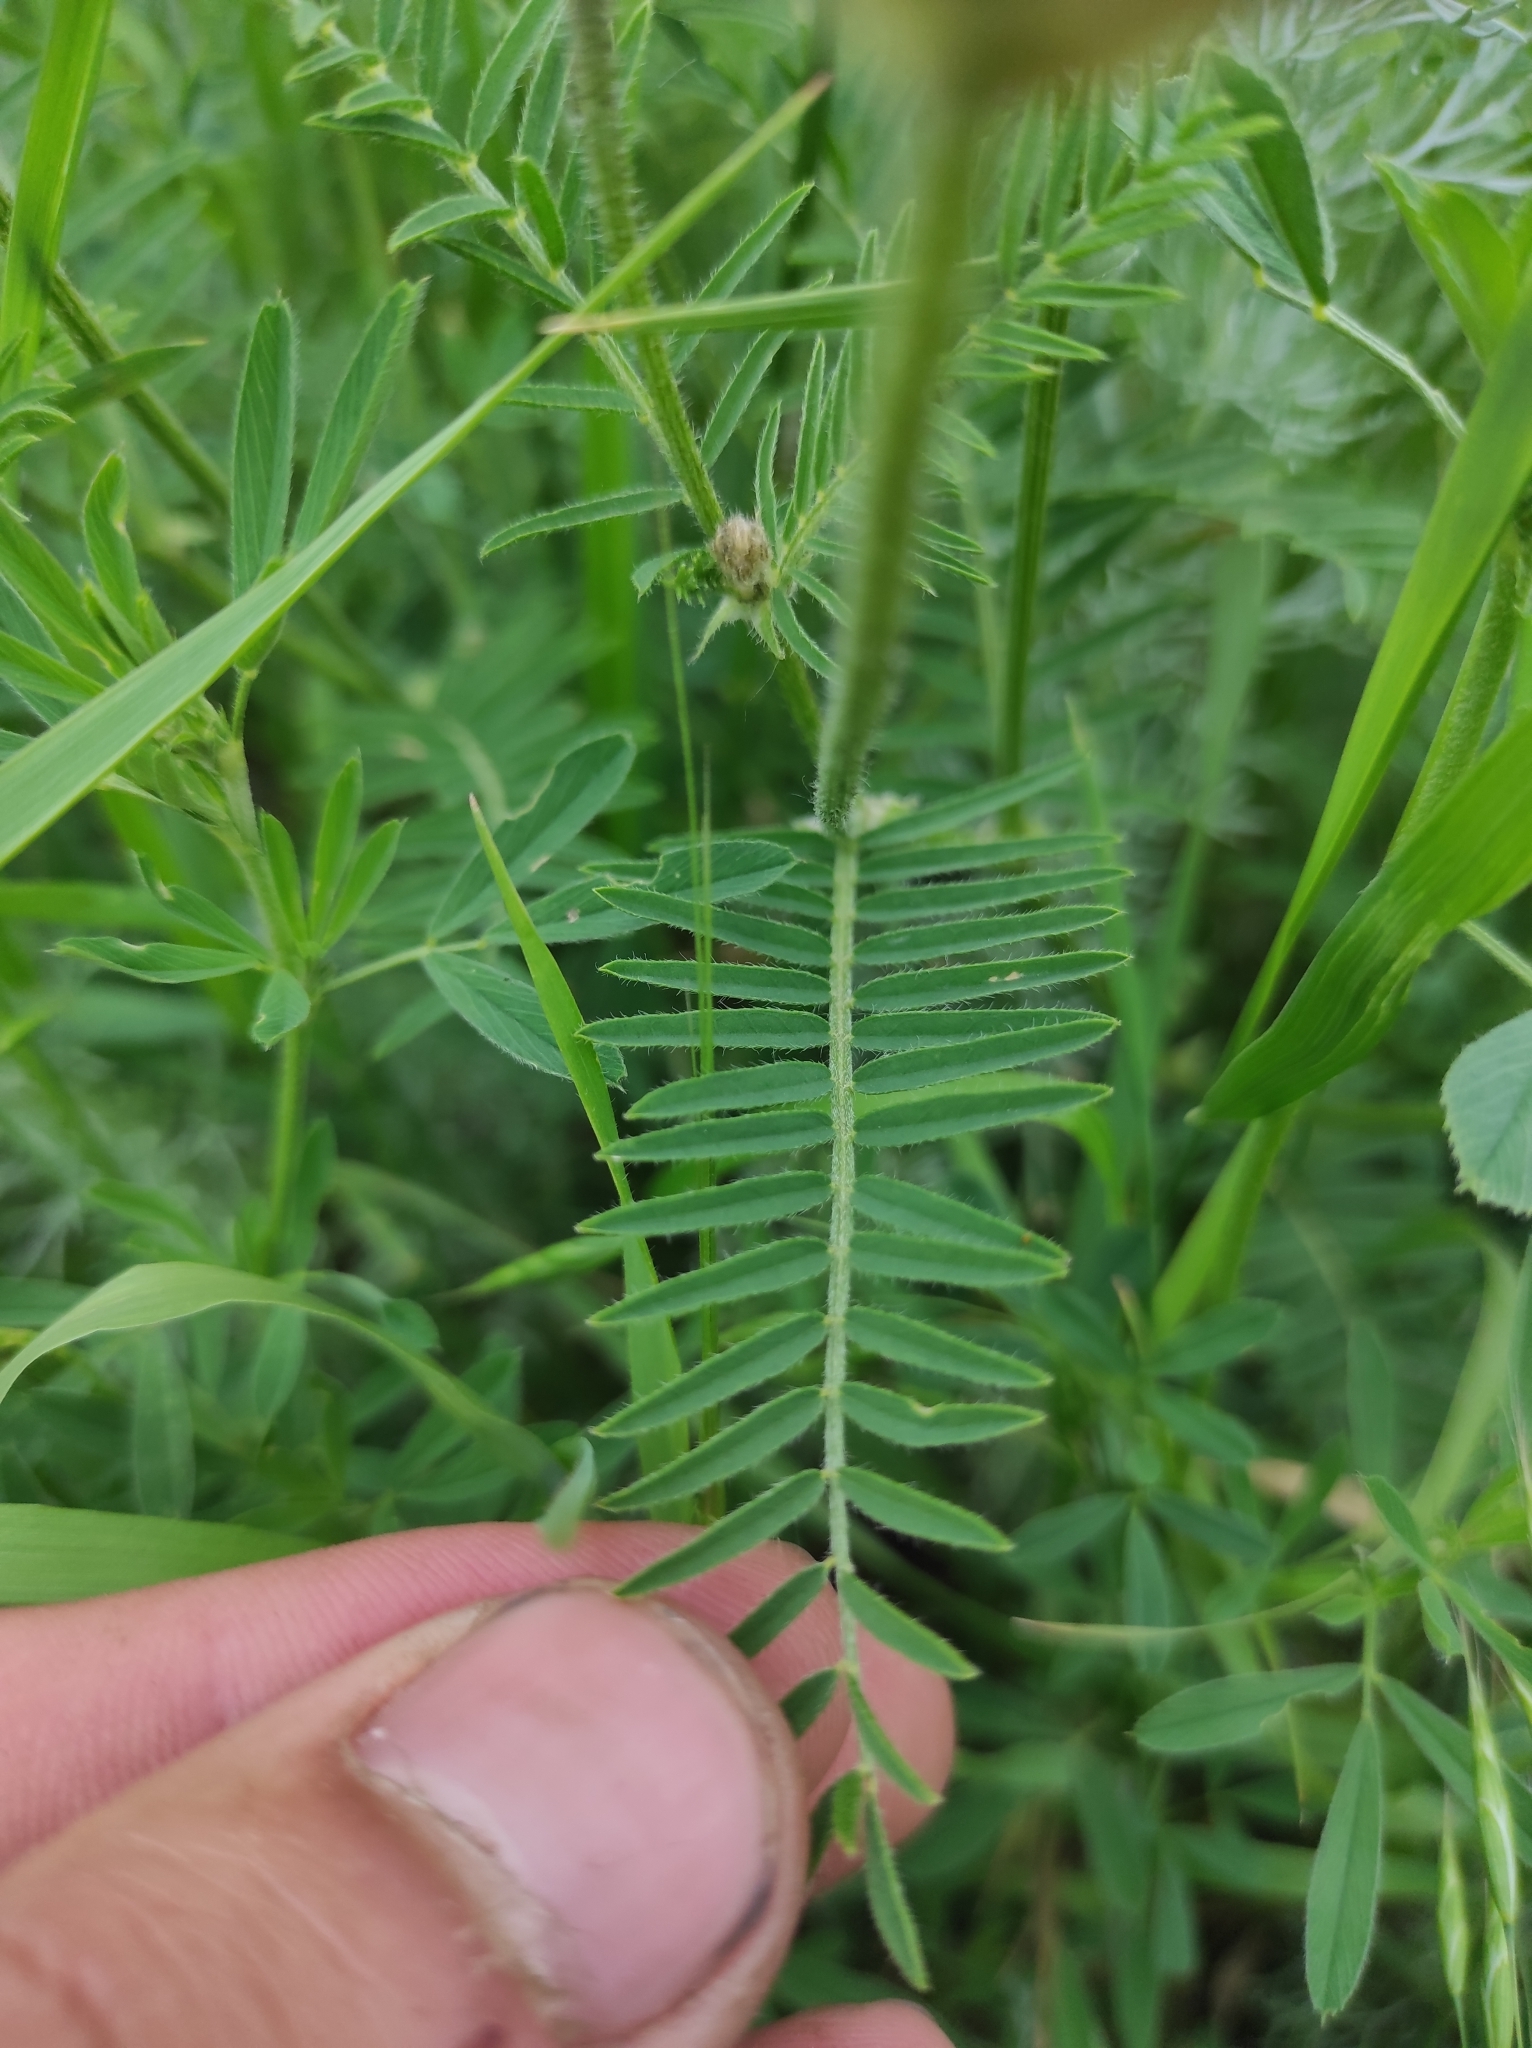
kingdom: Plantae
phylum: Tracheophyta
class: Magnoliopsida
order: Fabales
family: Fabaceae
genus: Astragalus
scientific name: Astragalus onobrychis
